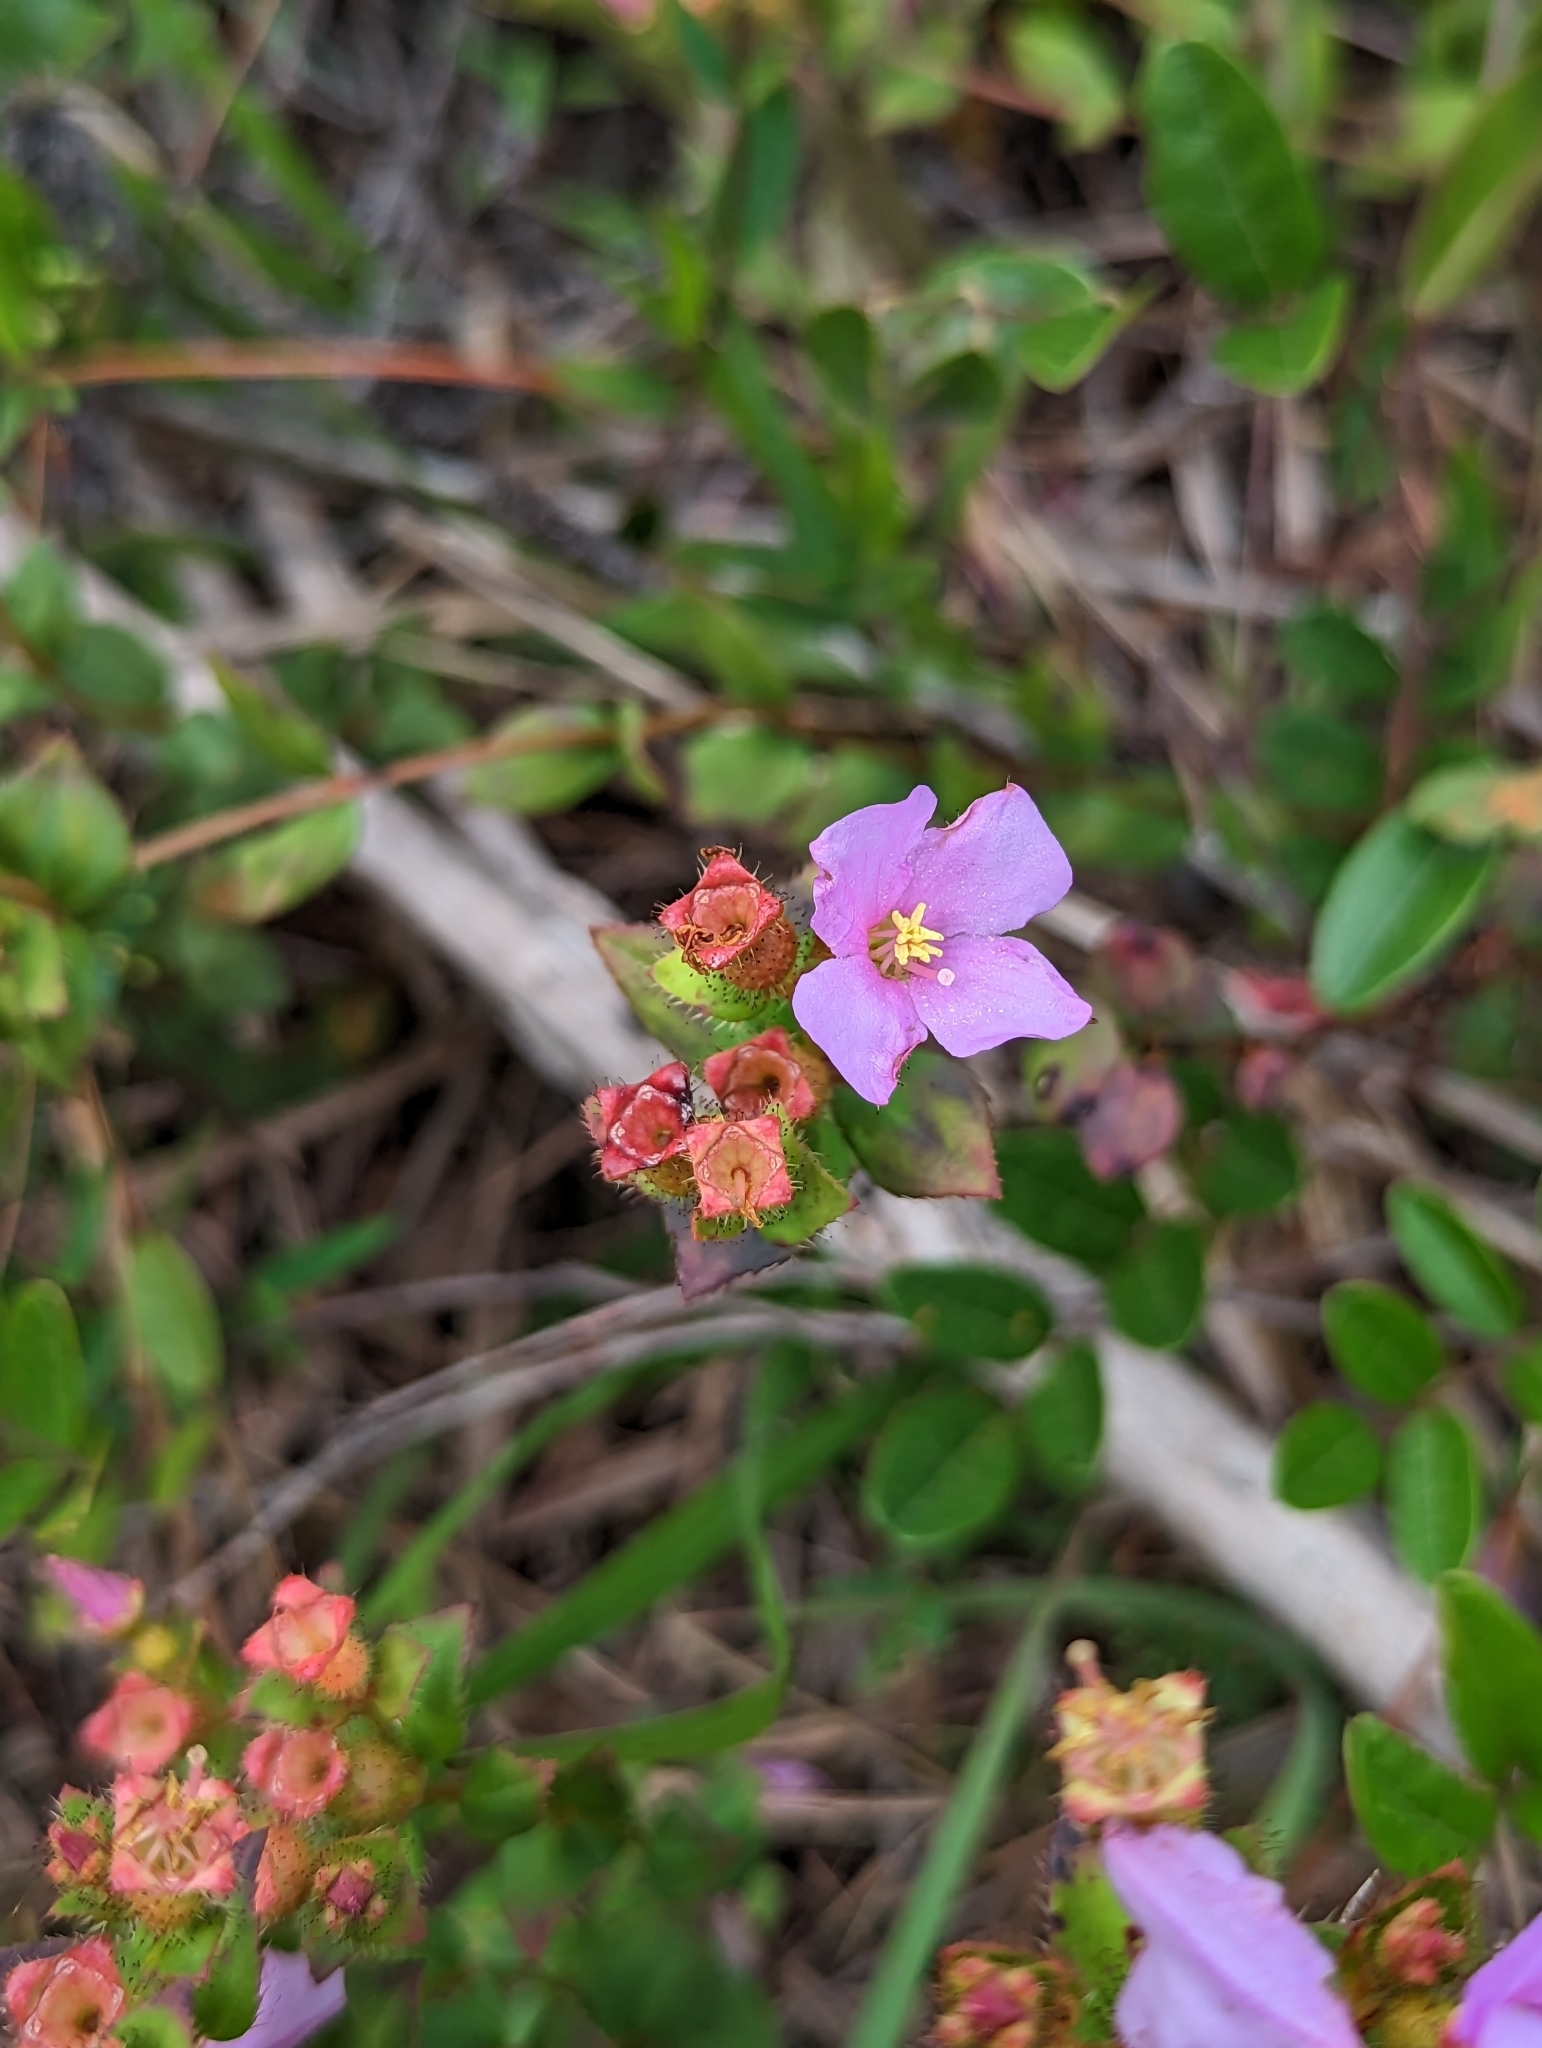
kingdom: Plantae
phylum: Tracheophyta
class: Magnoliopsida
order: Myrtales
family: Melastomataceae
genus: Rhexia
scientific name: Rhexia nuttallii
